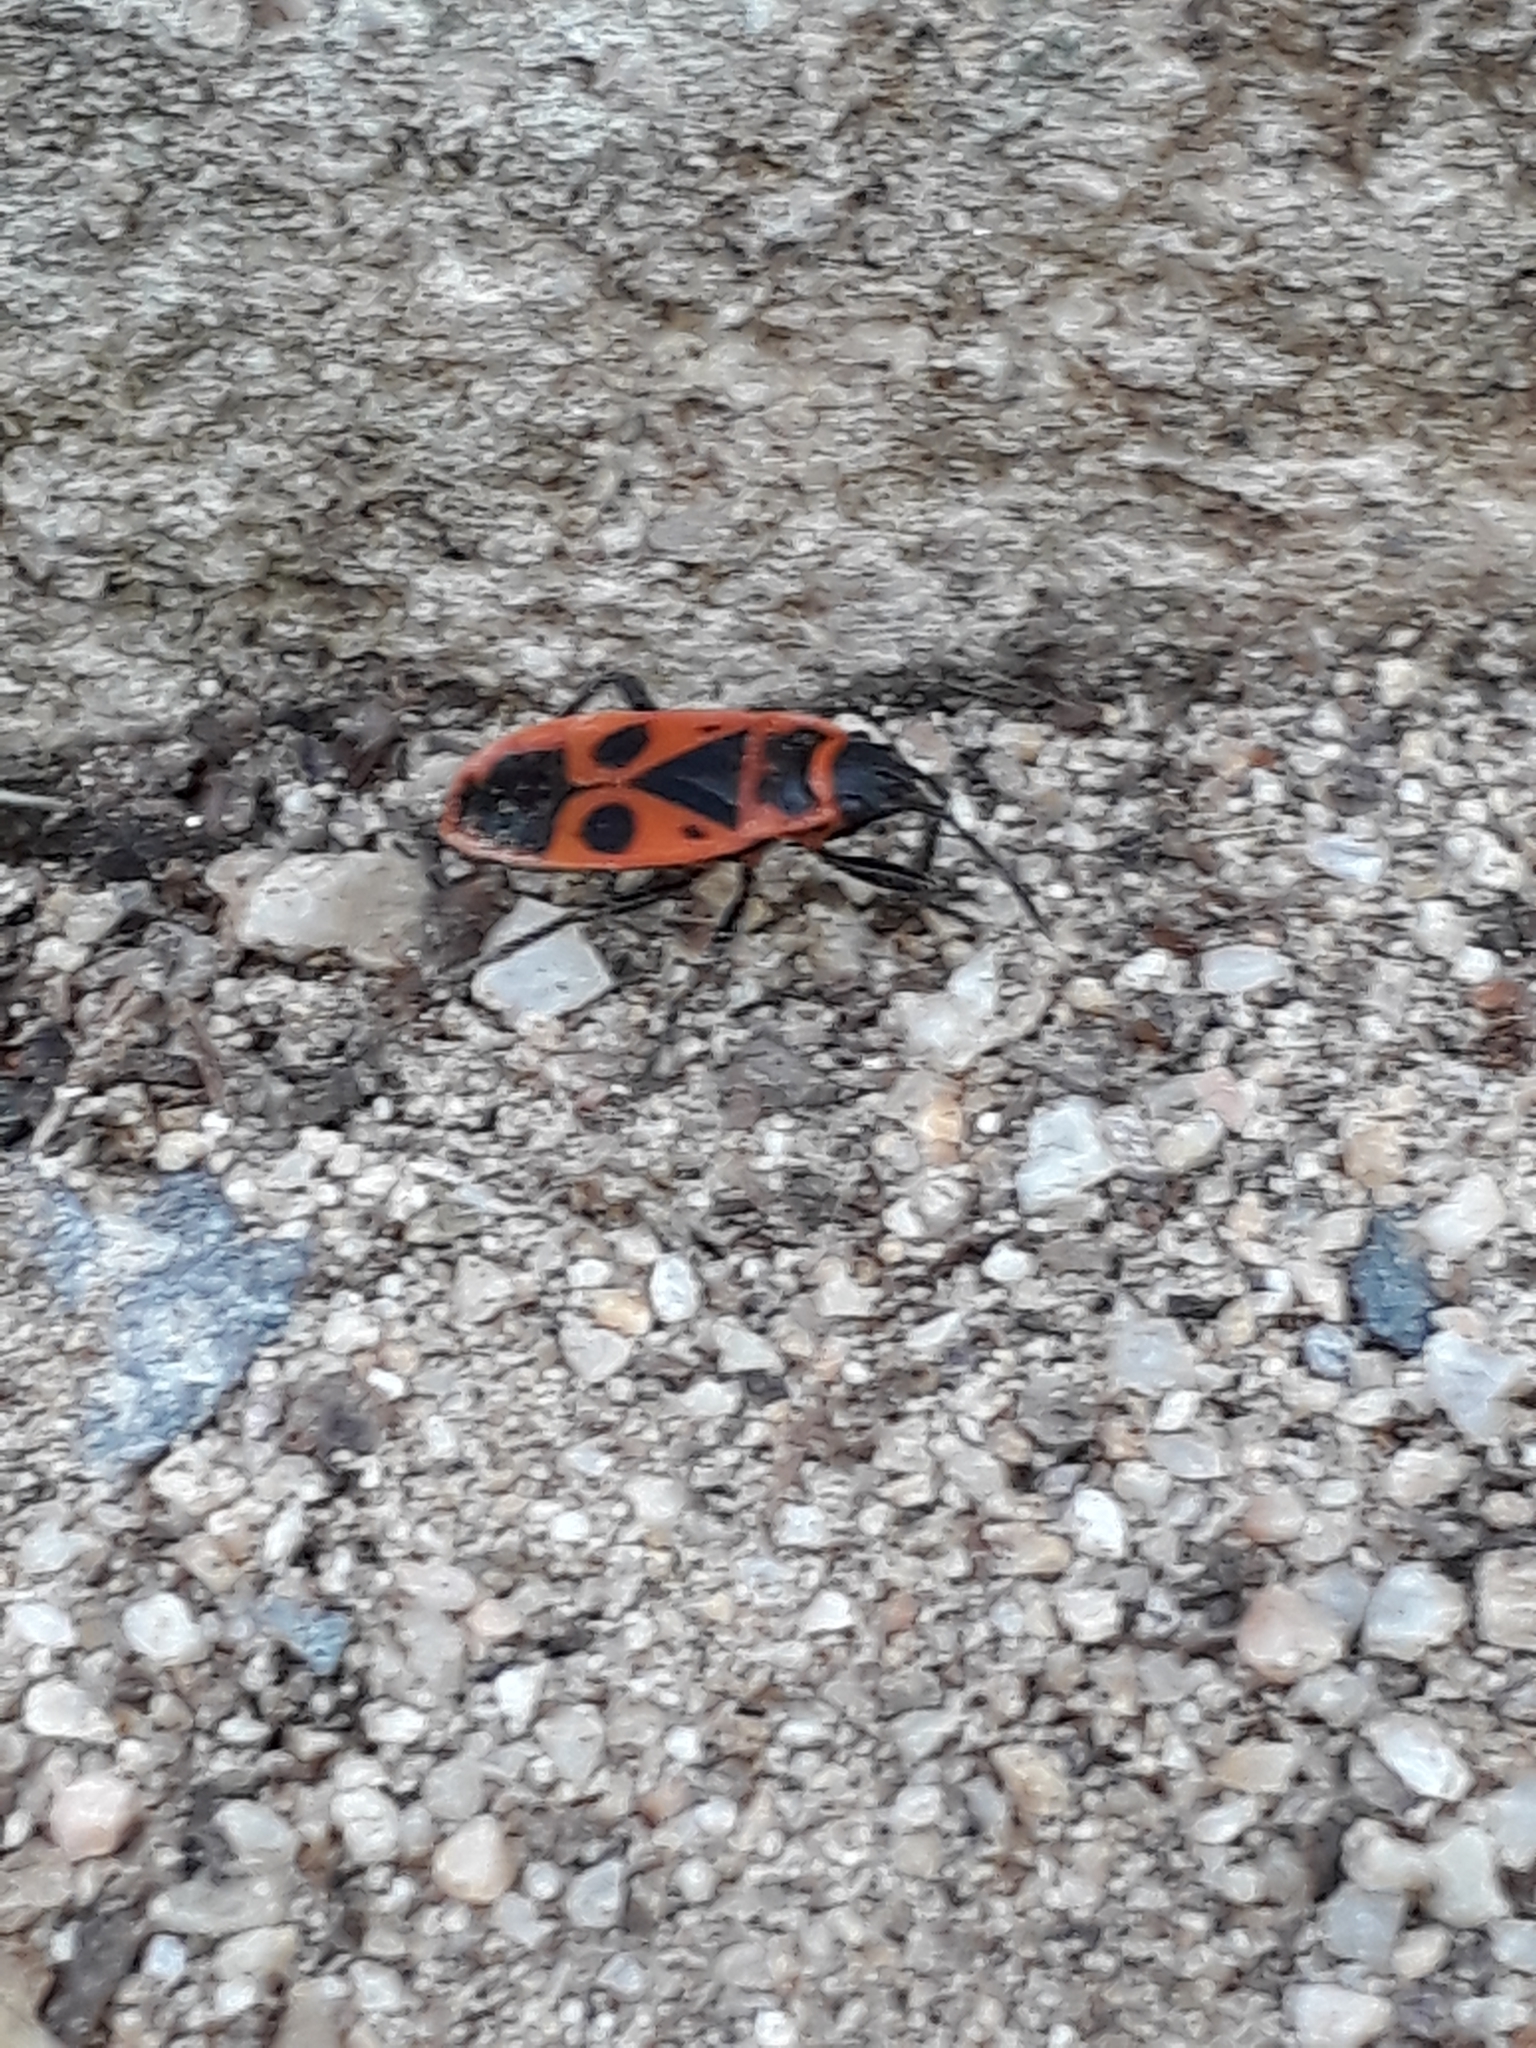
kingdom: Animalia
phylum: Arthropoda
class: Insecta
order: Hemiptera
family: Pyrrhocoridae
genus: Pyrrhocoris
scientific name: Pyrrhocoris apterus
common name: Firebug
